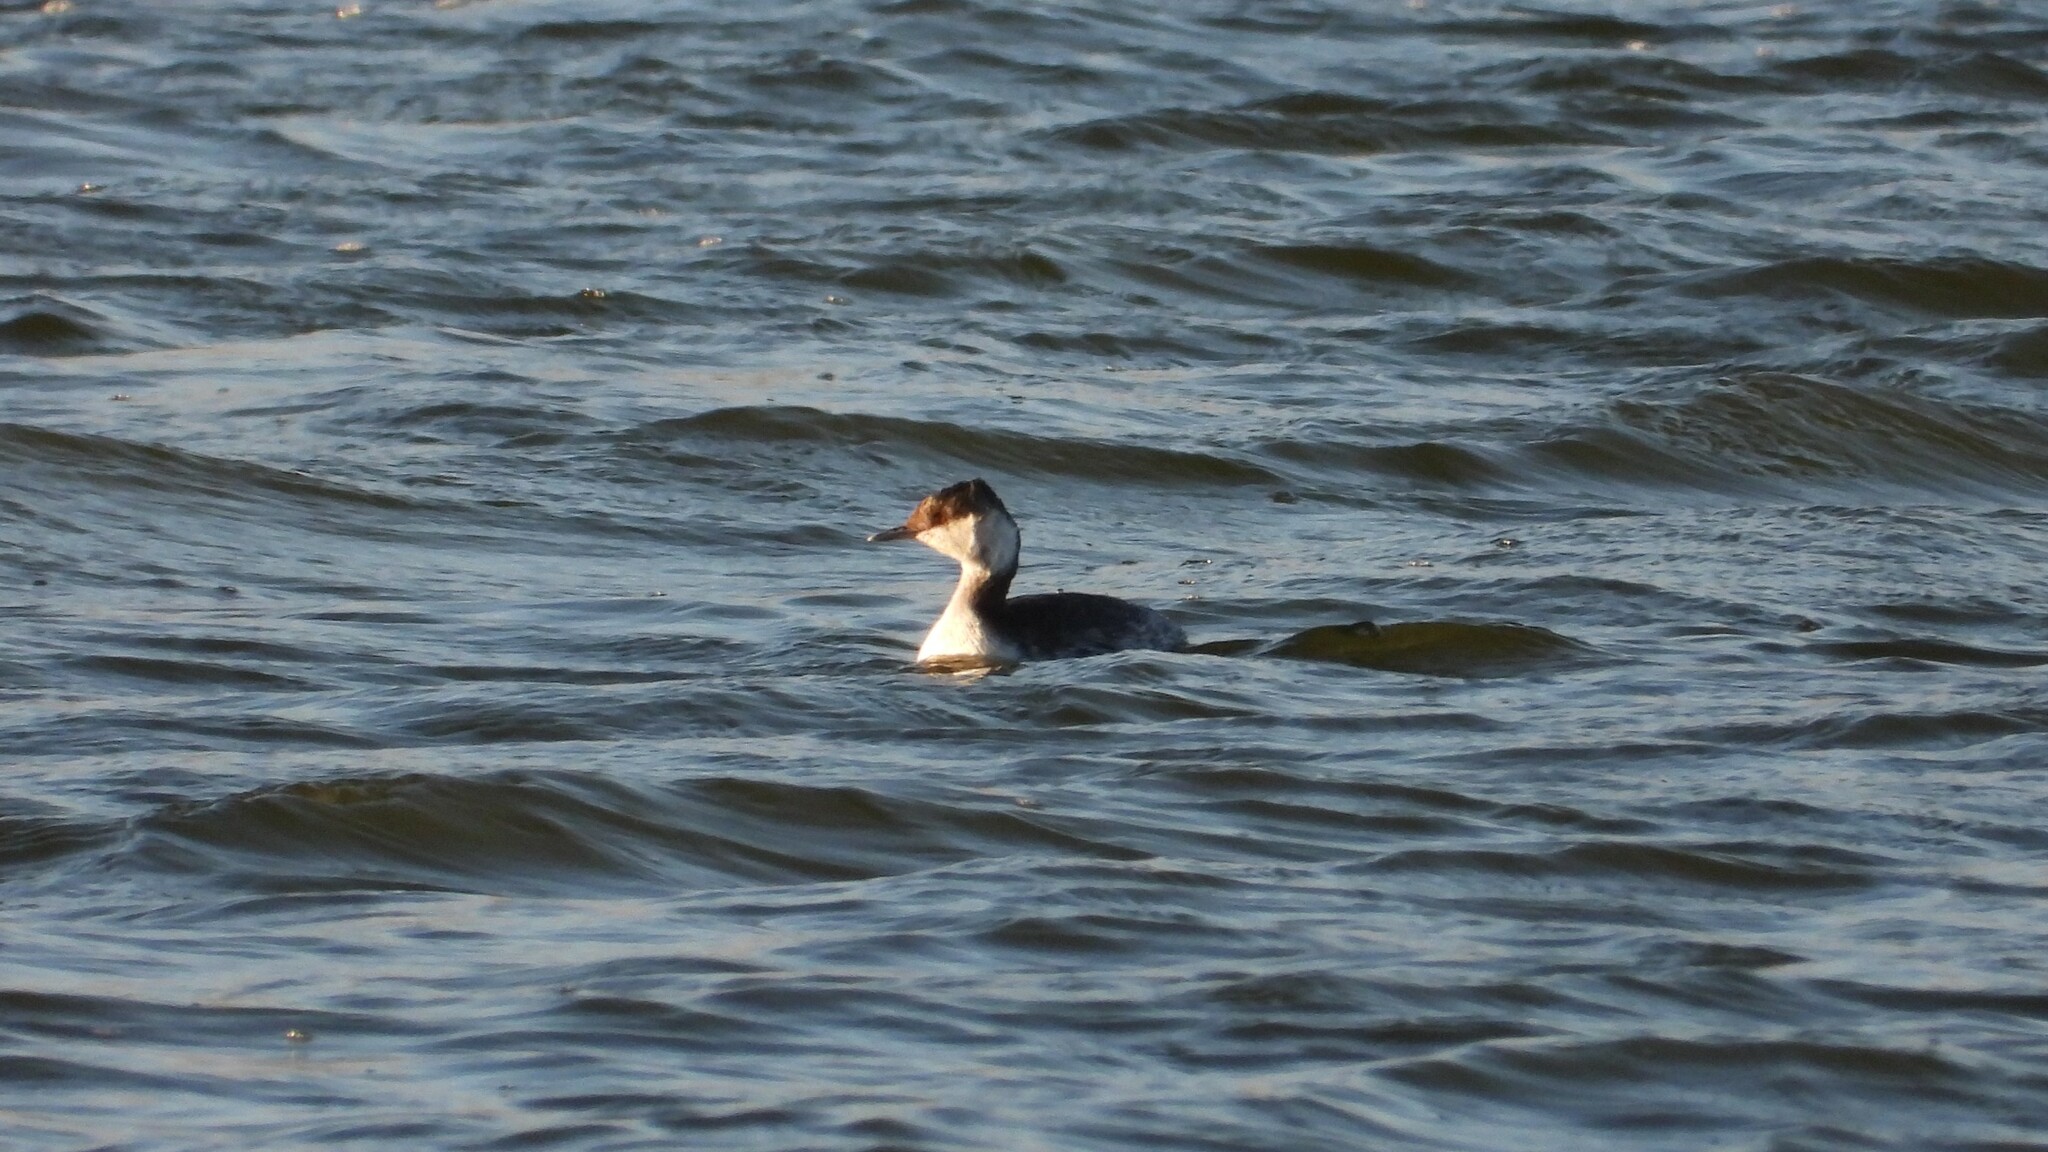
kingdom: Animalia
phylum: Chordata
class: Aves
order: Podicipediformes
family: Podicipedidae
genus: Podiceps
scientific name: Podiceps auritus
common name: Horned grebe
